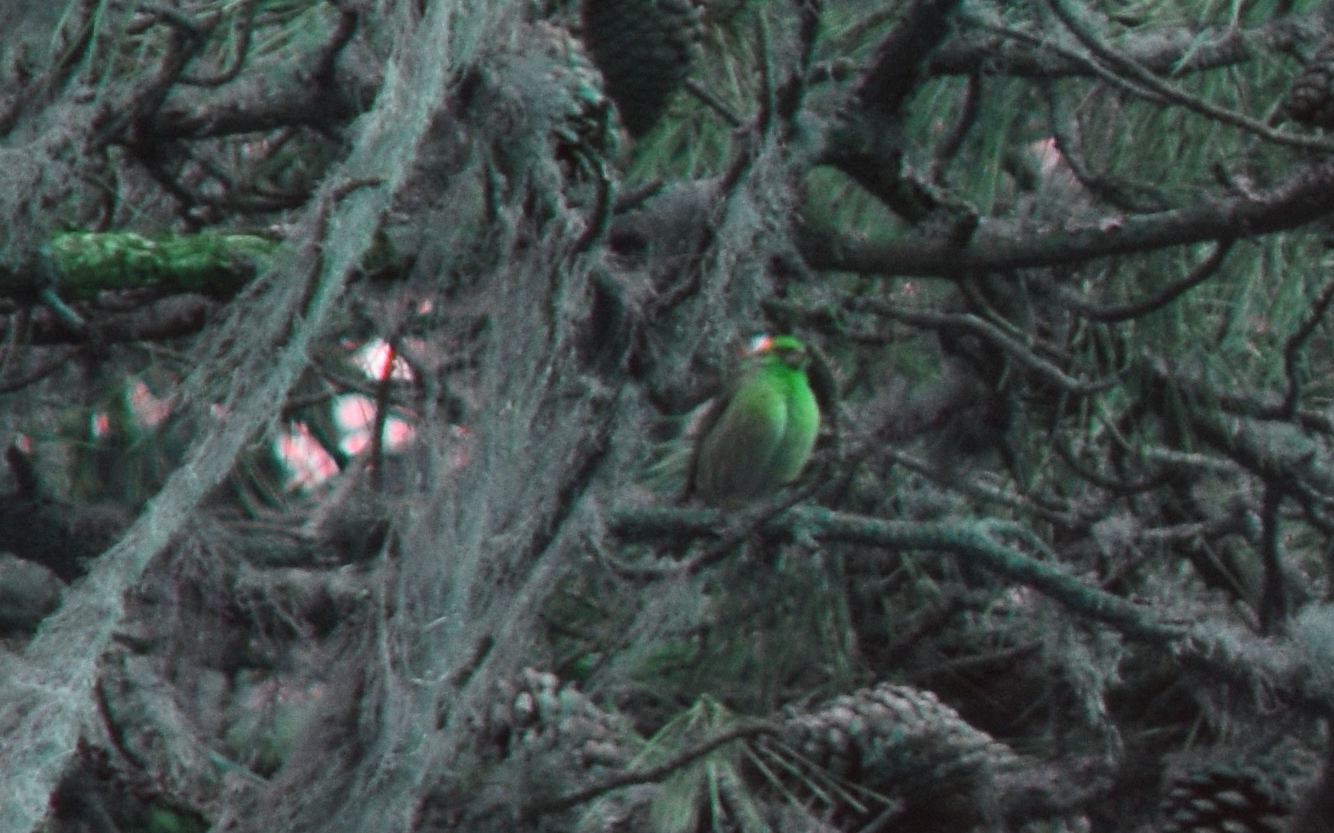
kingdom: Animalia
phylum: Chordata
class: Aves
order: Passeriformes
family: Fringillidae
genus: Haemorhous
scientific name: Haemorhous purpureus
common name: Purple finch
